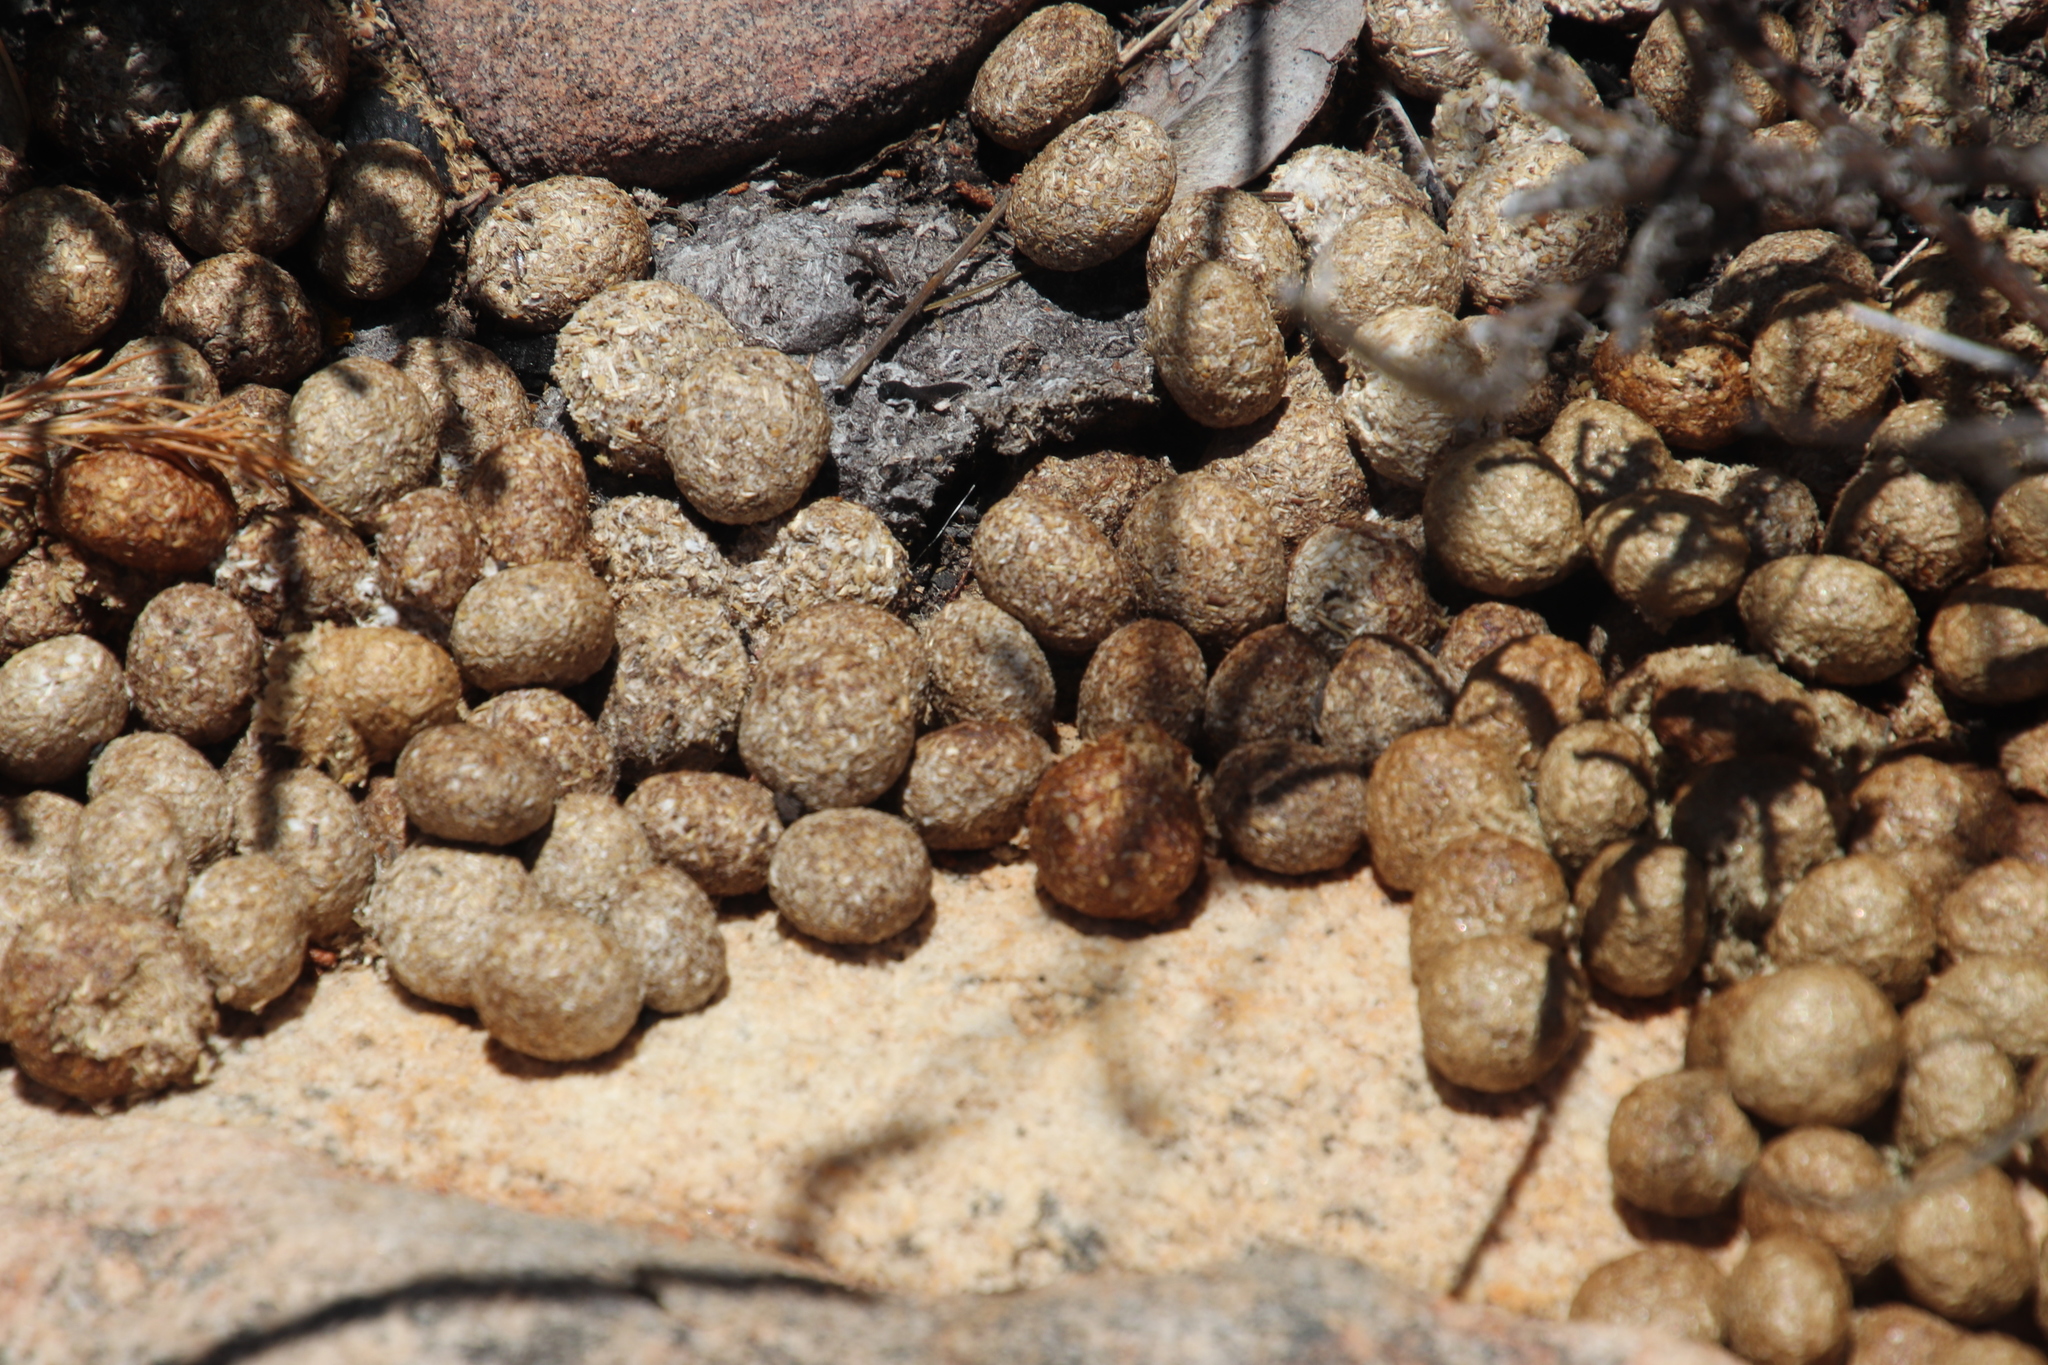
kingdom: Animalia
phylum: Chordata
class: Mammalia
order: Lagomorpha
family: Leporidae
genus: Pronolagus
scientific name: Pronolagus saundersiae
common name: Hewitt's red rock hare
